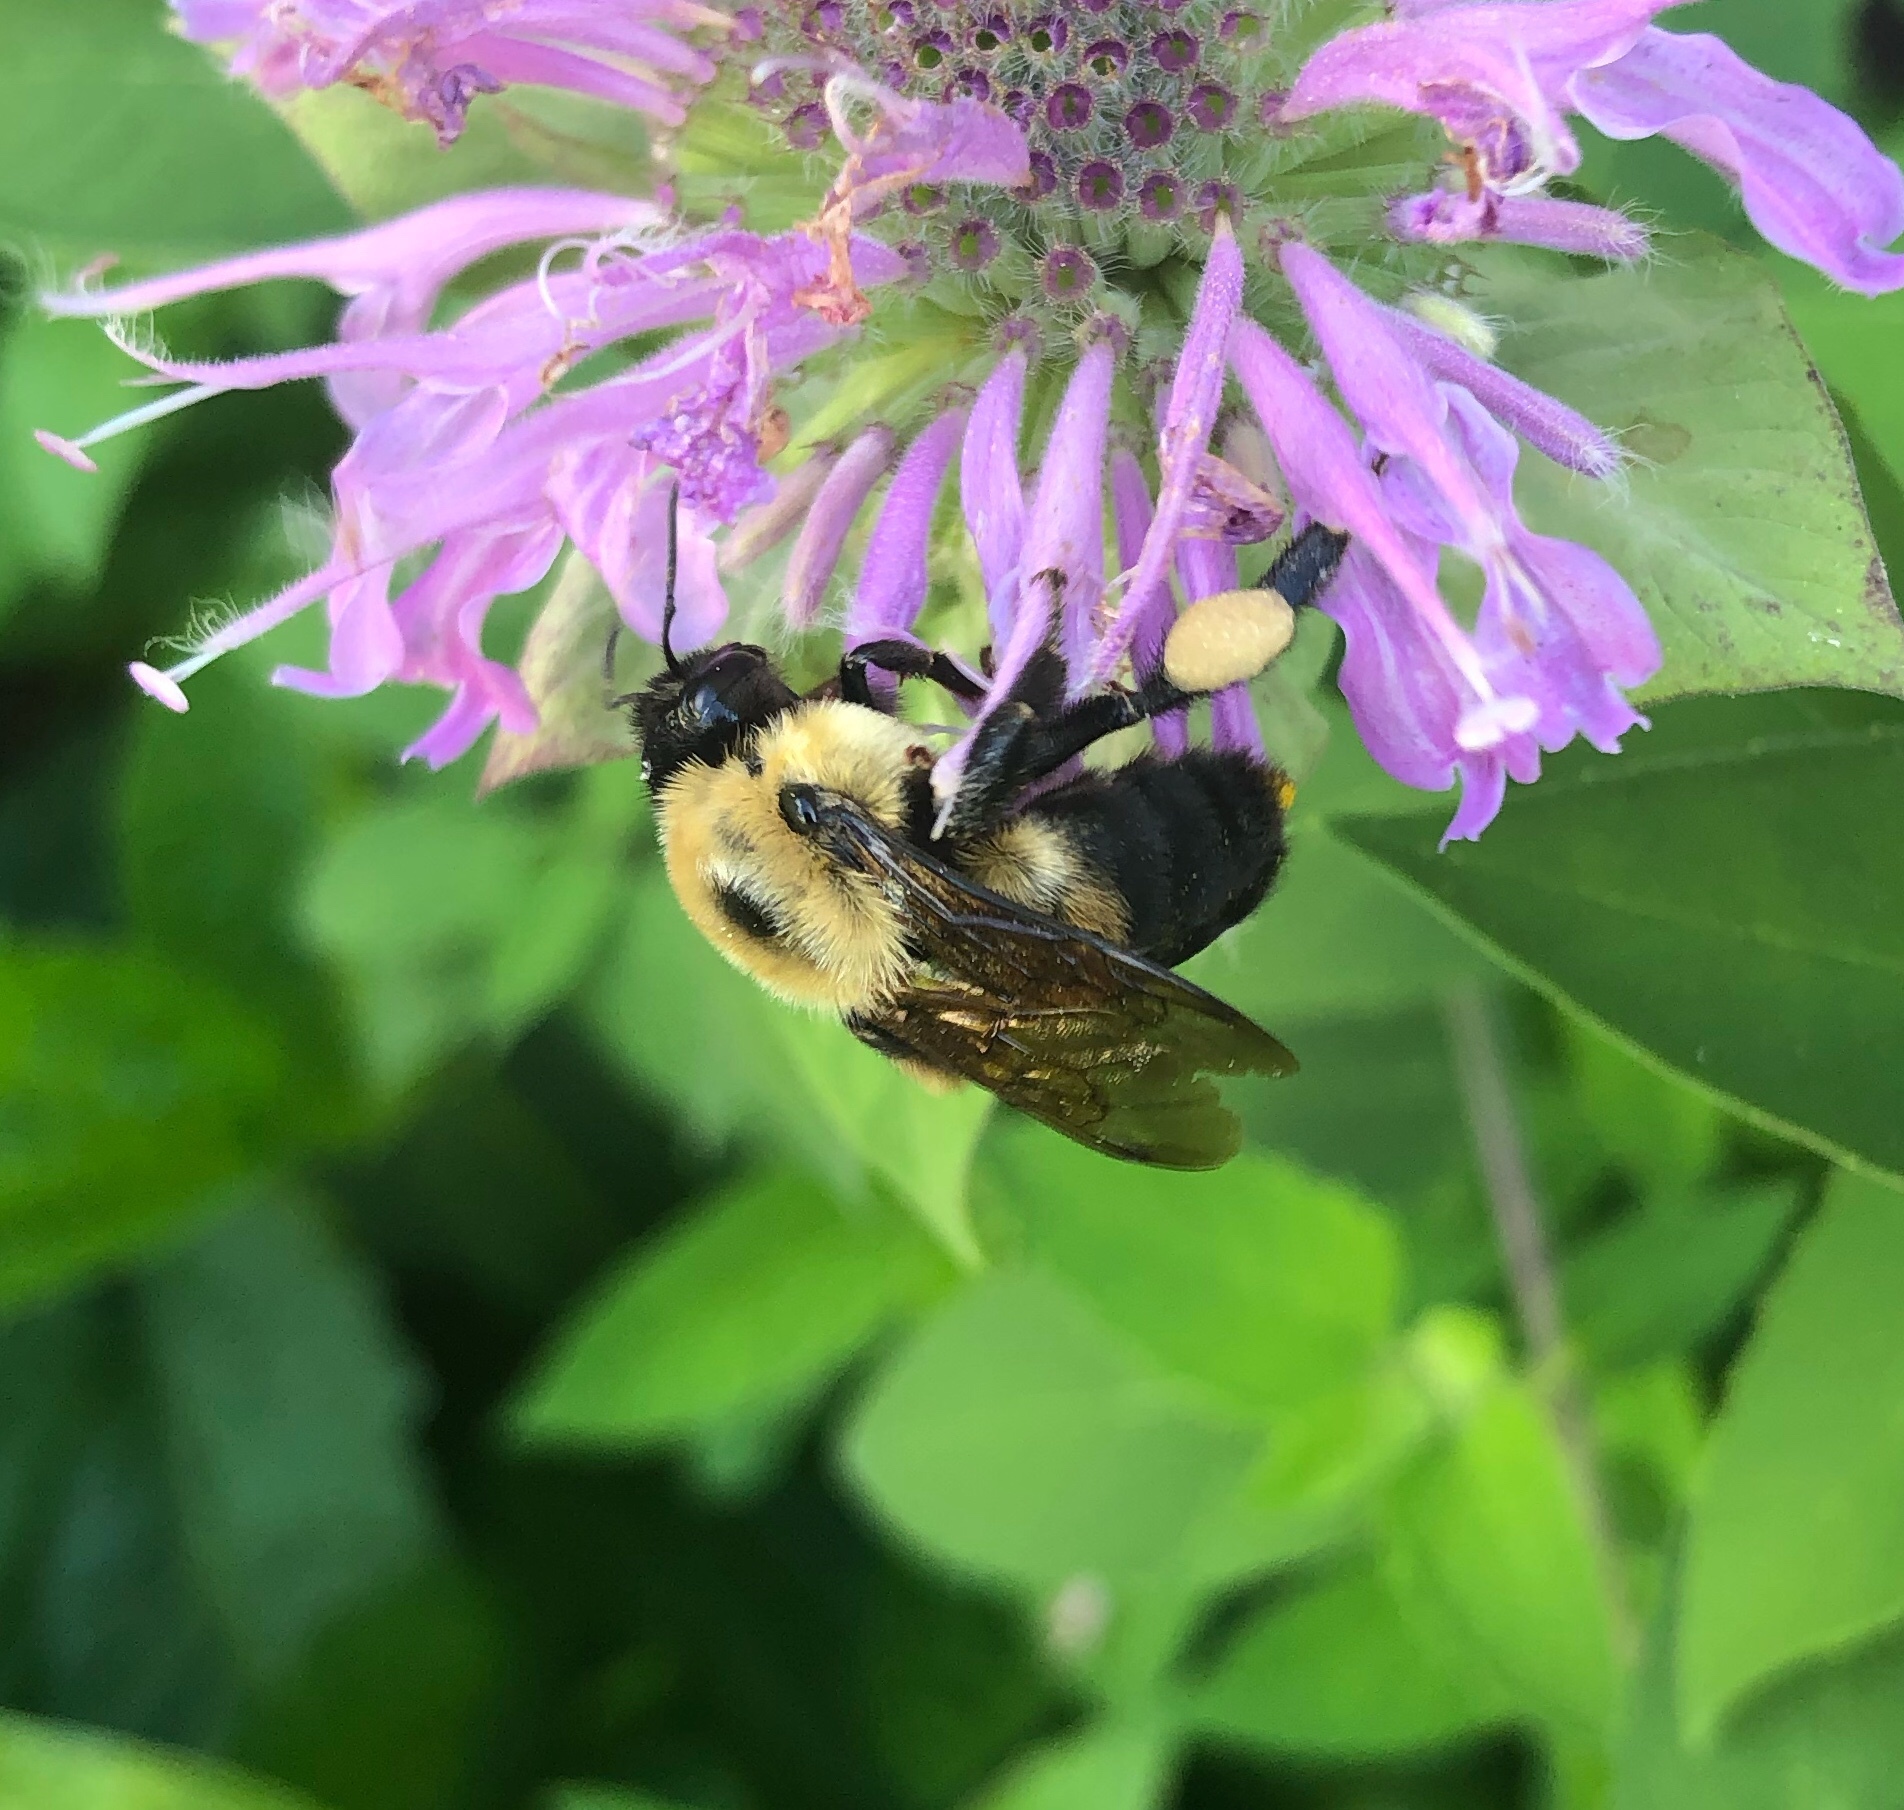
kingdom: Animalia
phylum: Arthropoda
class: Insecta
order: Hymenoptera
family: Apidae
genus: Bombus
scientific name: Bombus griseocollis
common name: Brown-belted bumble bee
